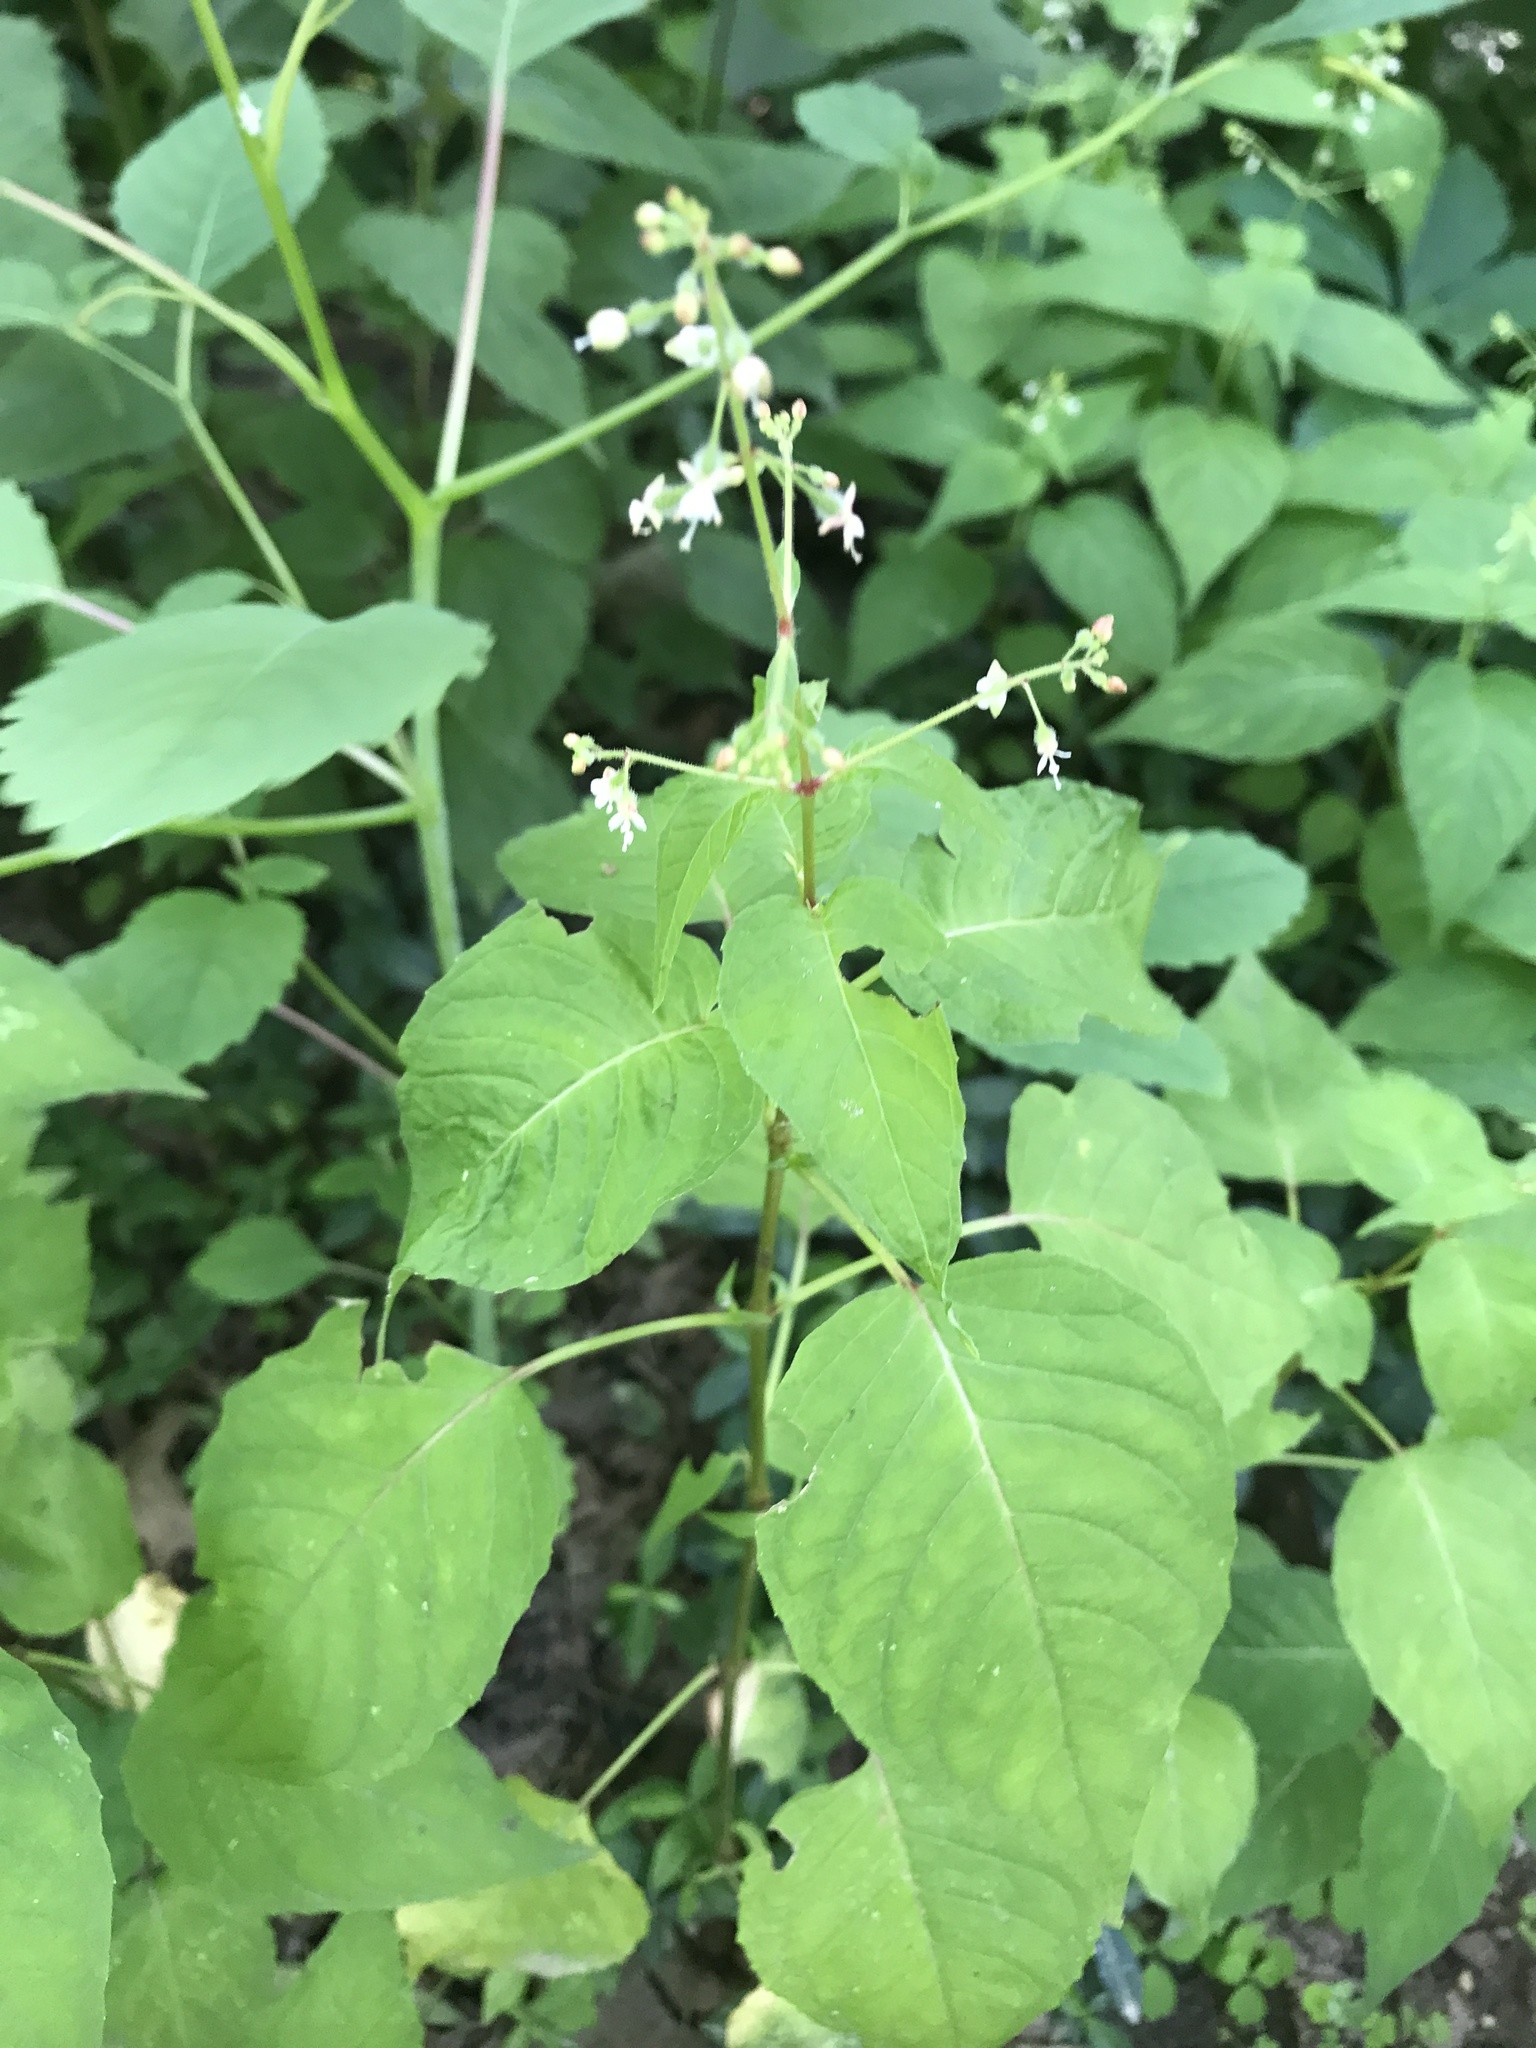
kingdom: Plantae
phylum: Tracheophyta
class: Magnoliopsida
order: Myrtales
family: Onagraceae
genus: Circaea
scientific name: Circaea canadensis
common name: Broad-leaved enchanter's nightshade
